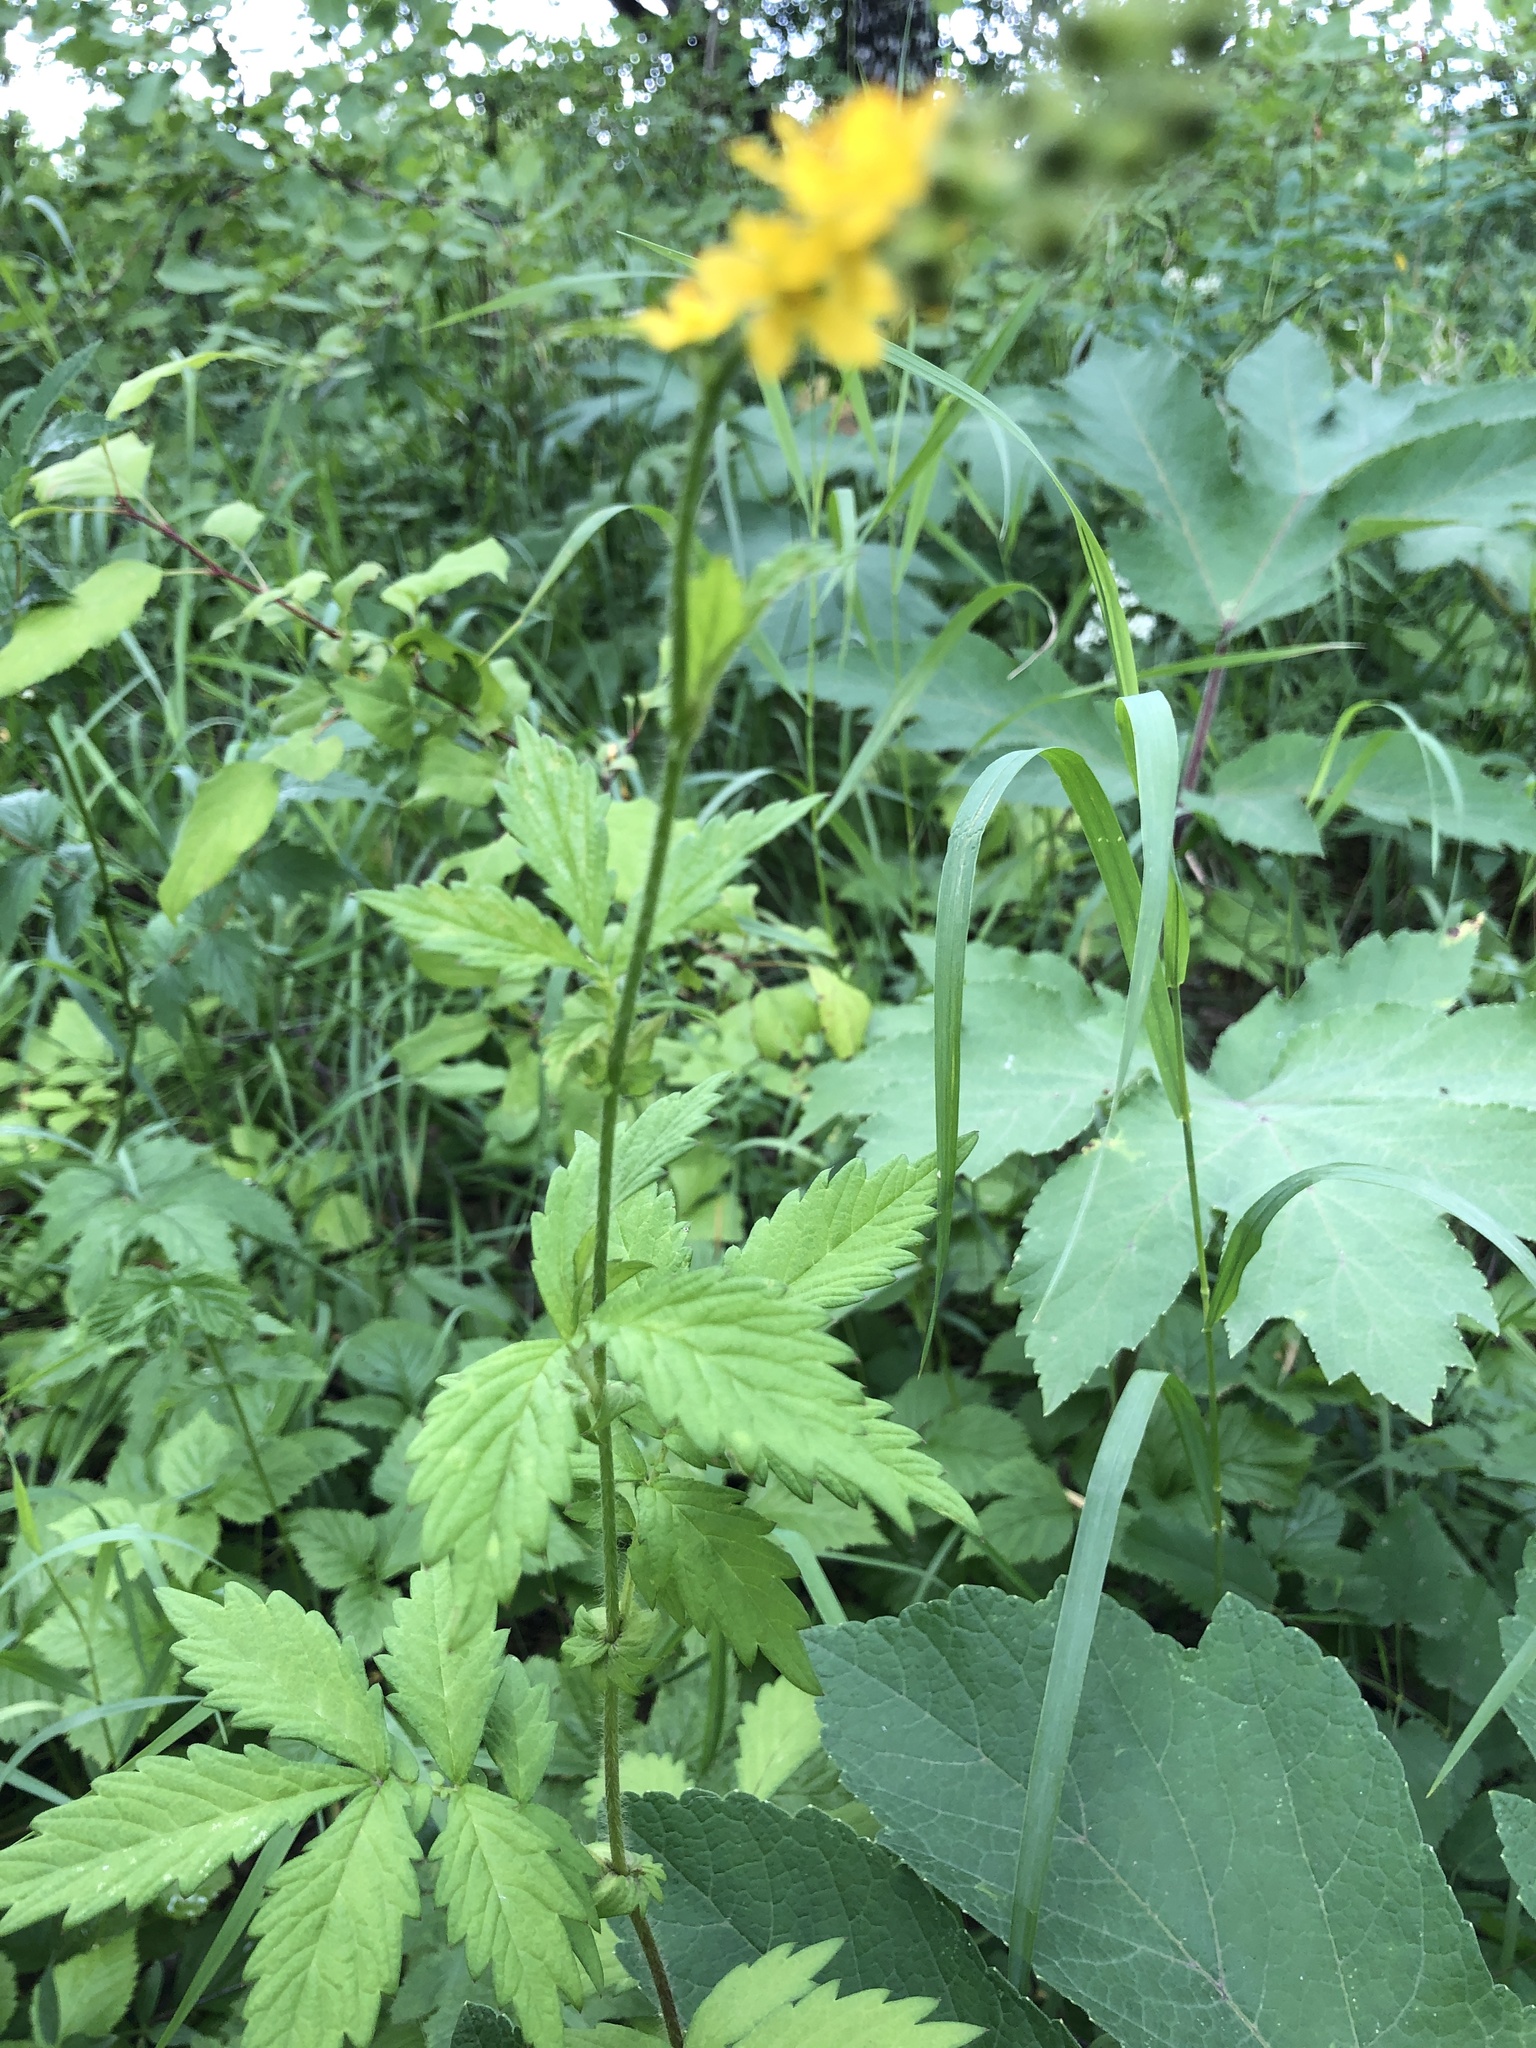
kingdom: Plantae
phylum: Tracheophyta
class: Magnoliopsida
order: Rosales
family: Rosaceae
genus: Agrimonia
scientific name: Agrimonia pilosa
